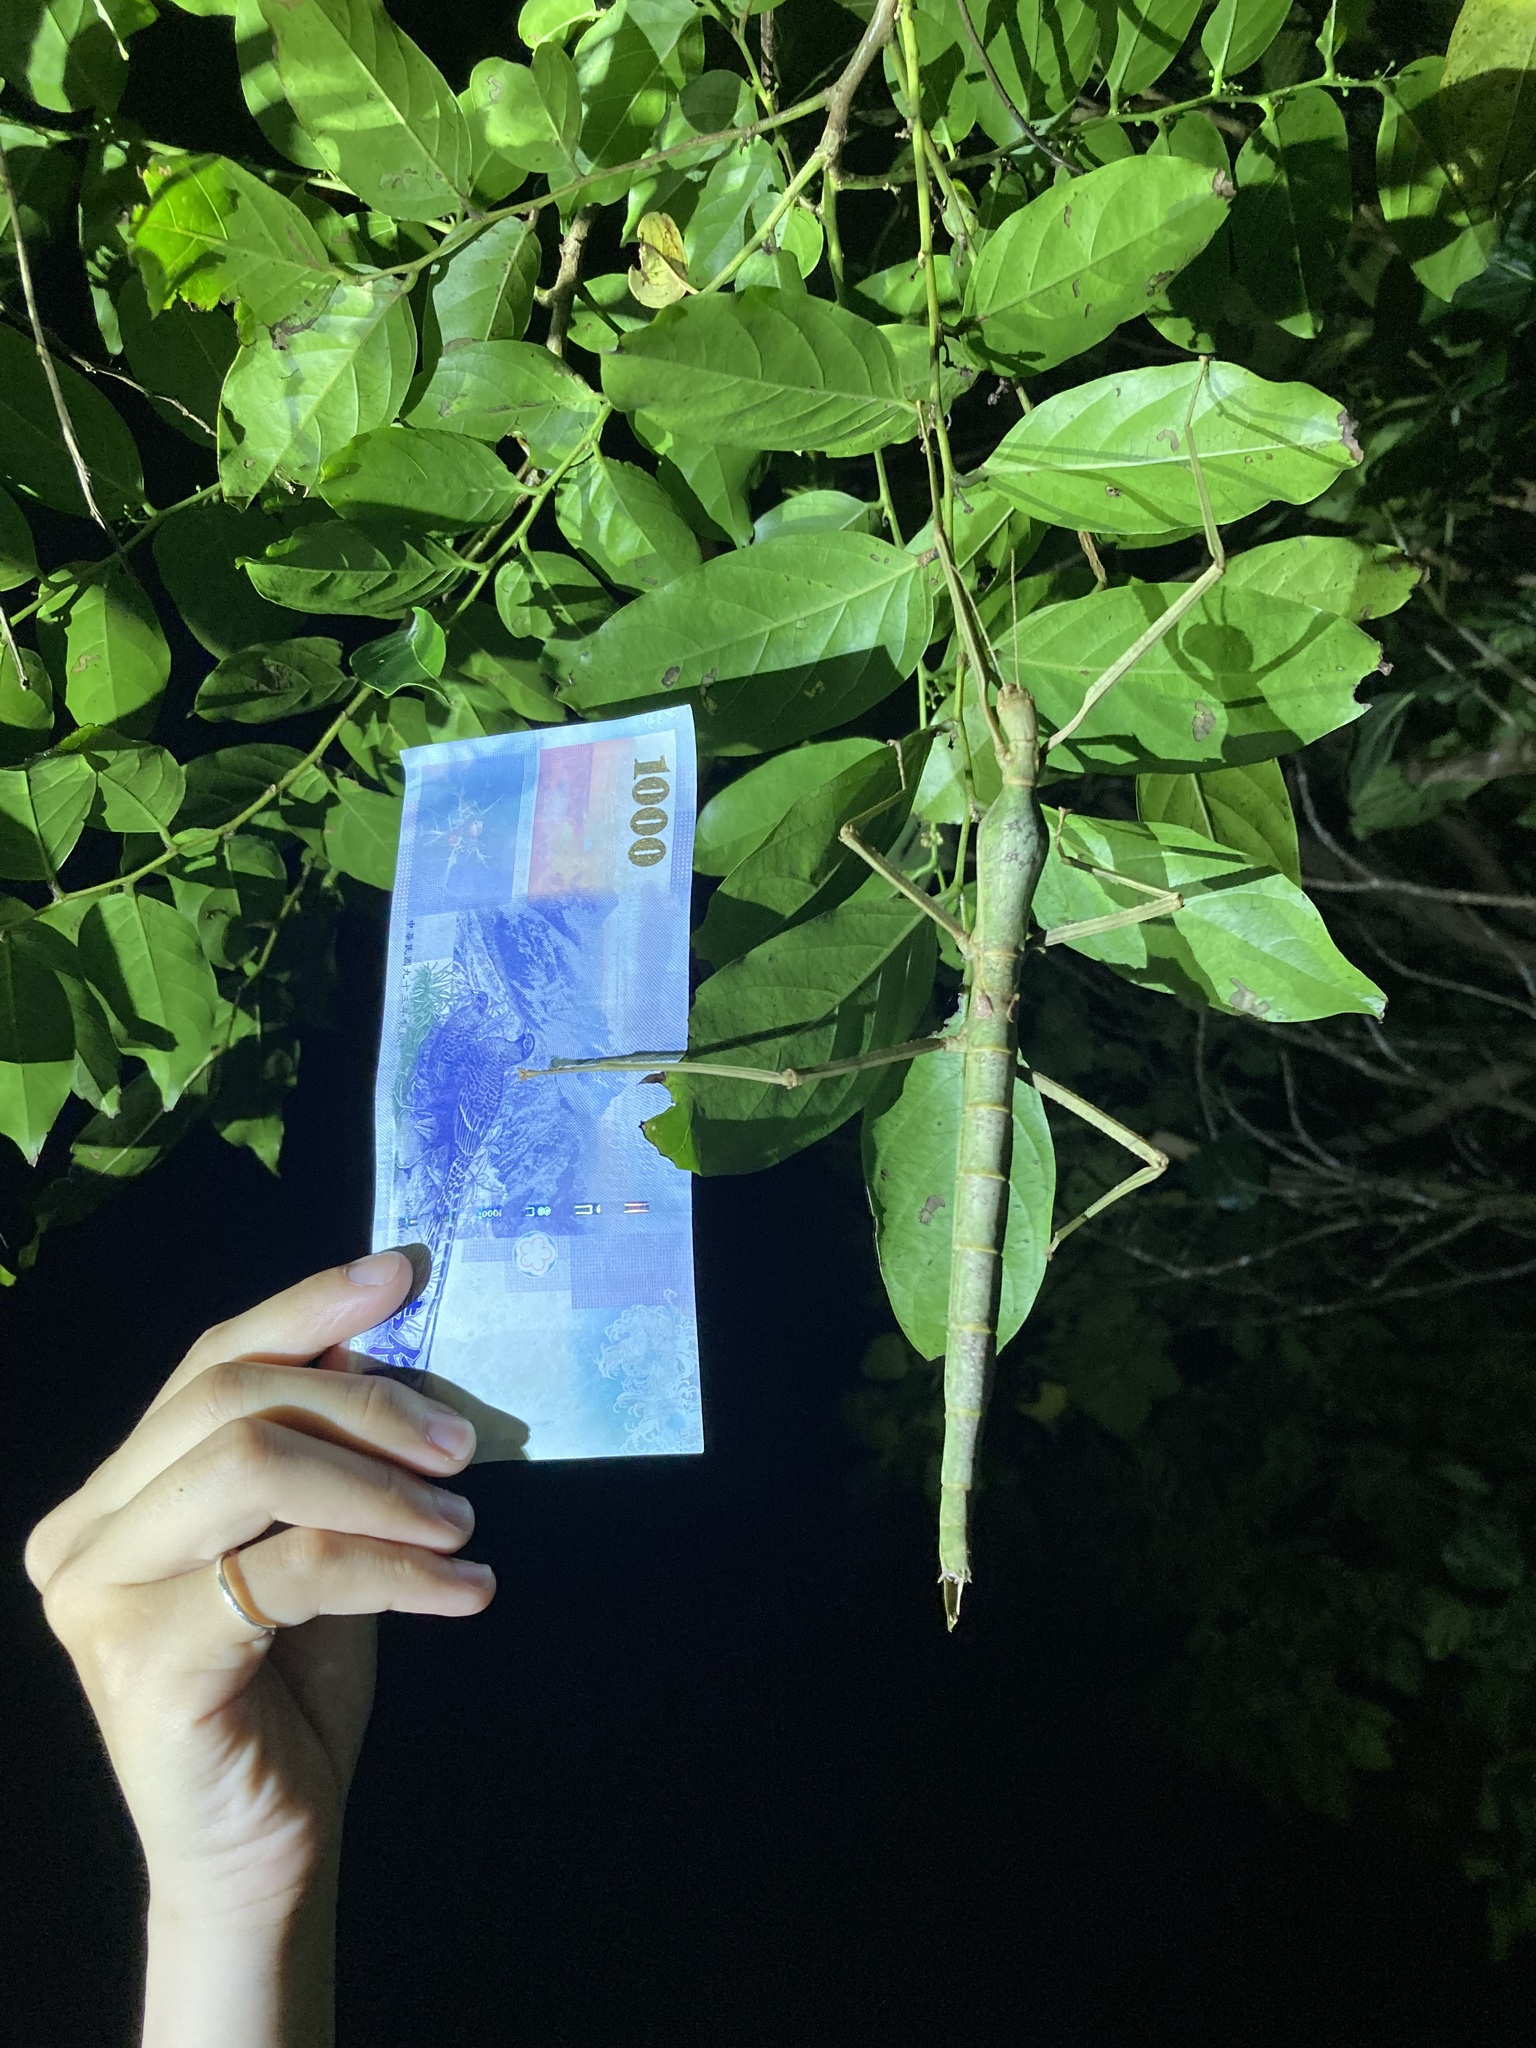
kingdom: Animalia
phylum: Arthropoda
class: Insecta
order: Phasmida
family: Phasmatidae
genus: Phasmotaenia
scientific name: Phasmotaenia lanyuhensis
